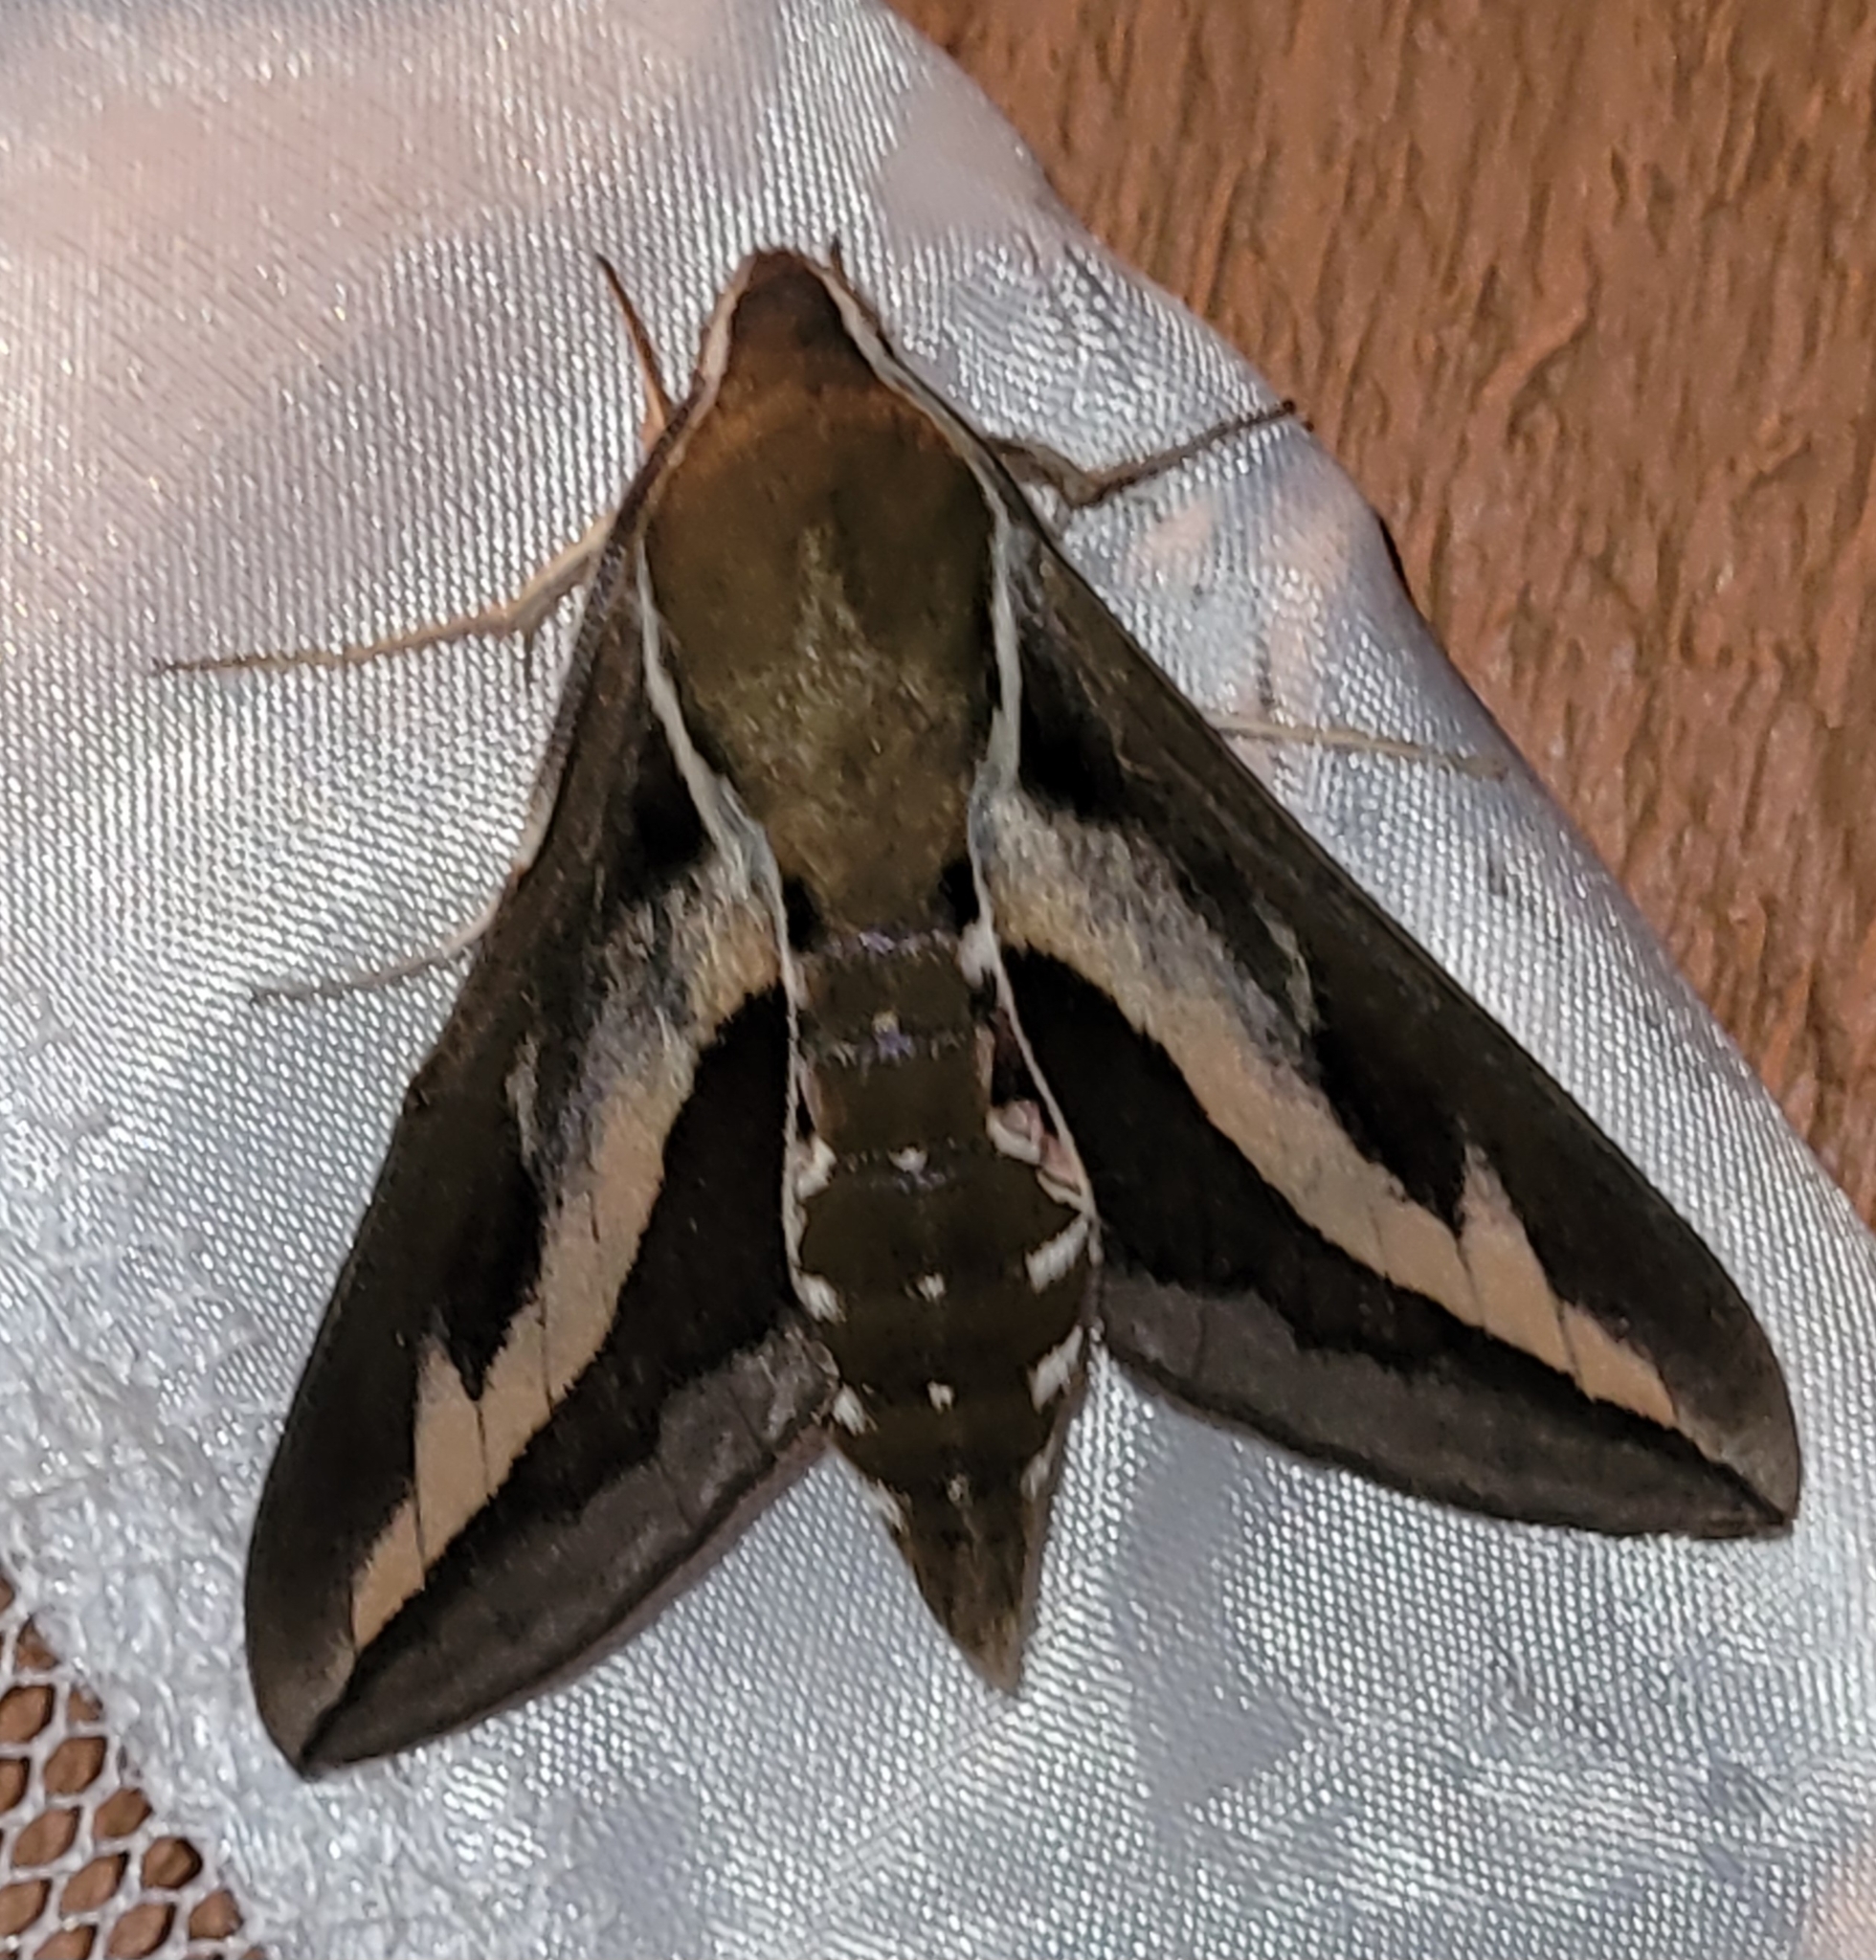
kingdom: Animalia
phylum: Arthropoda
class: Insecta
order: Lepidoptera
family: Sphingidae
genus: Hyles
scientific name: Hyles gallii
